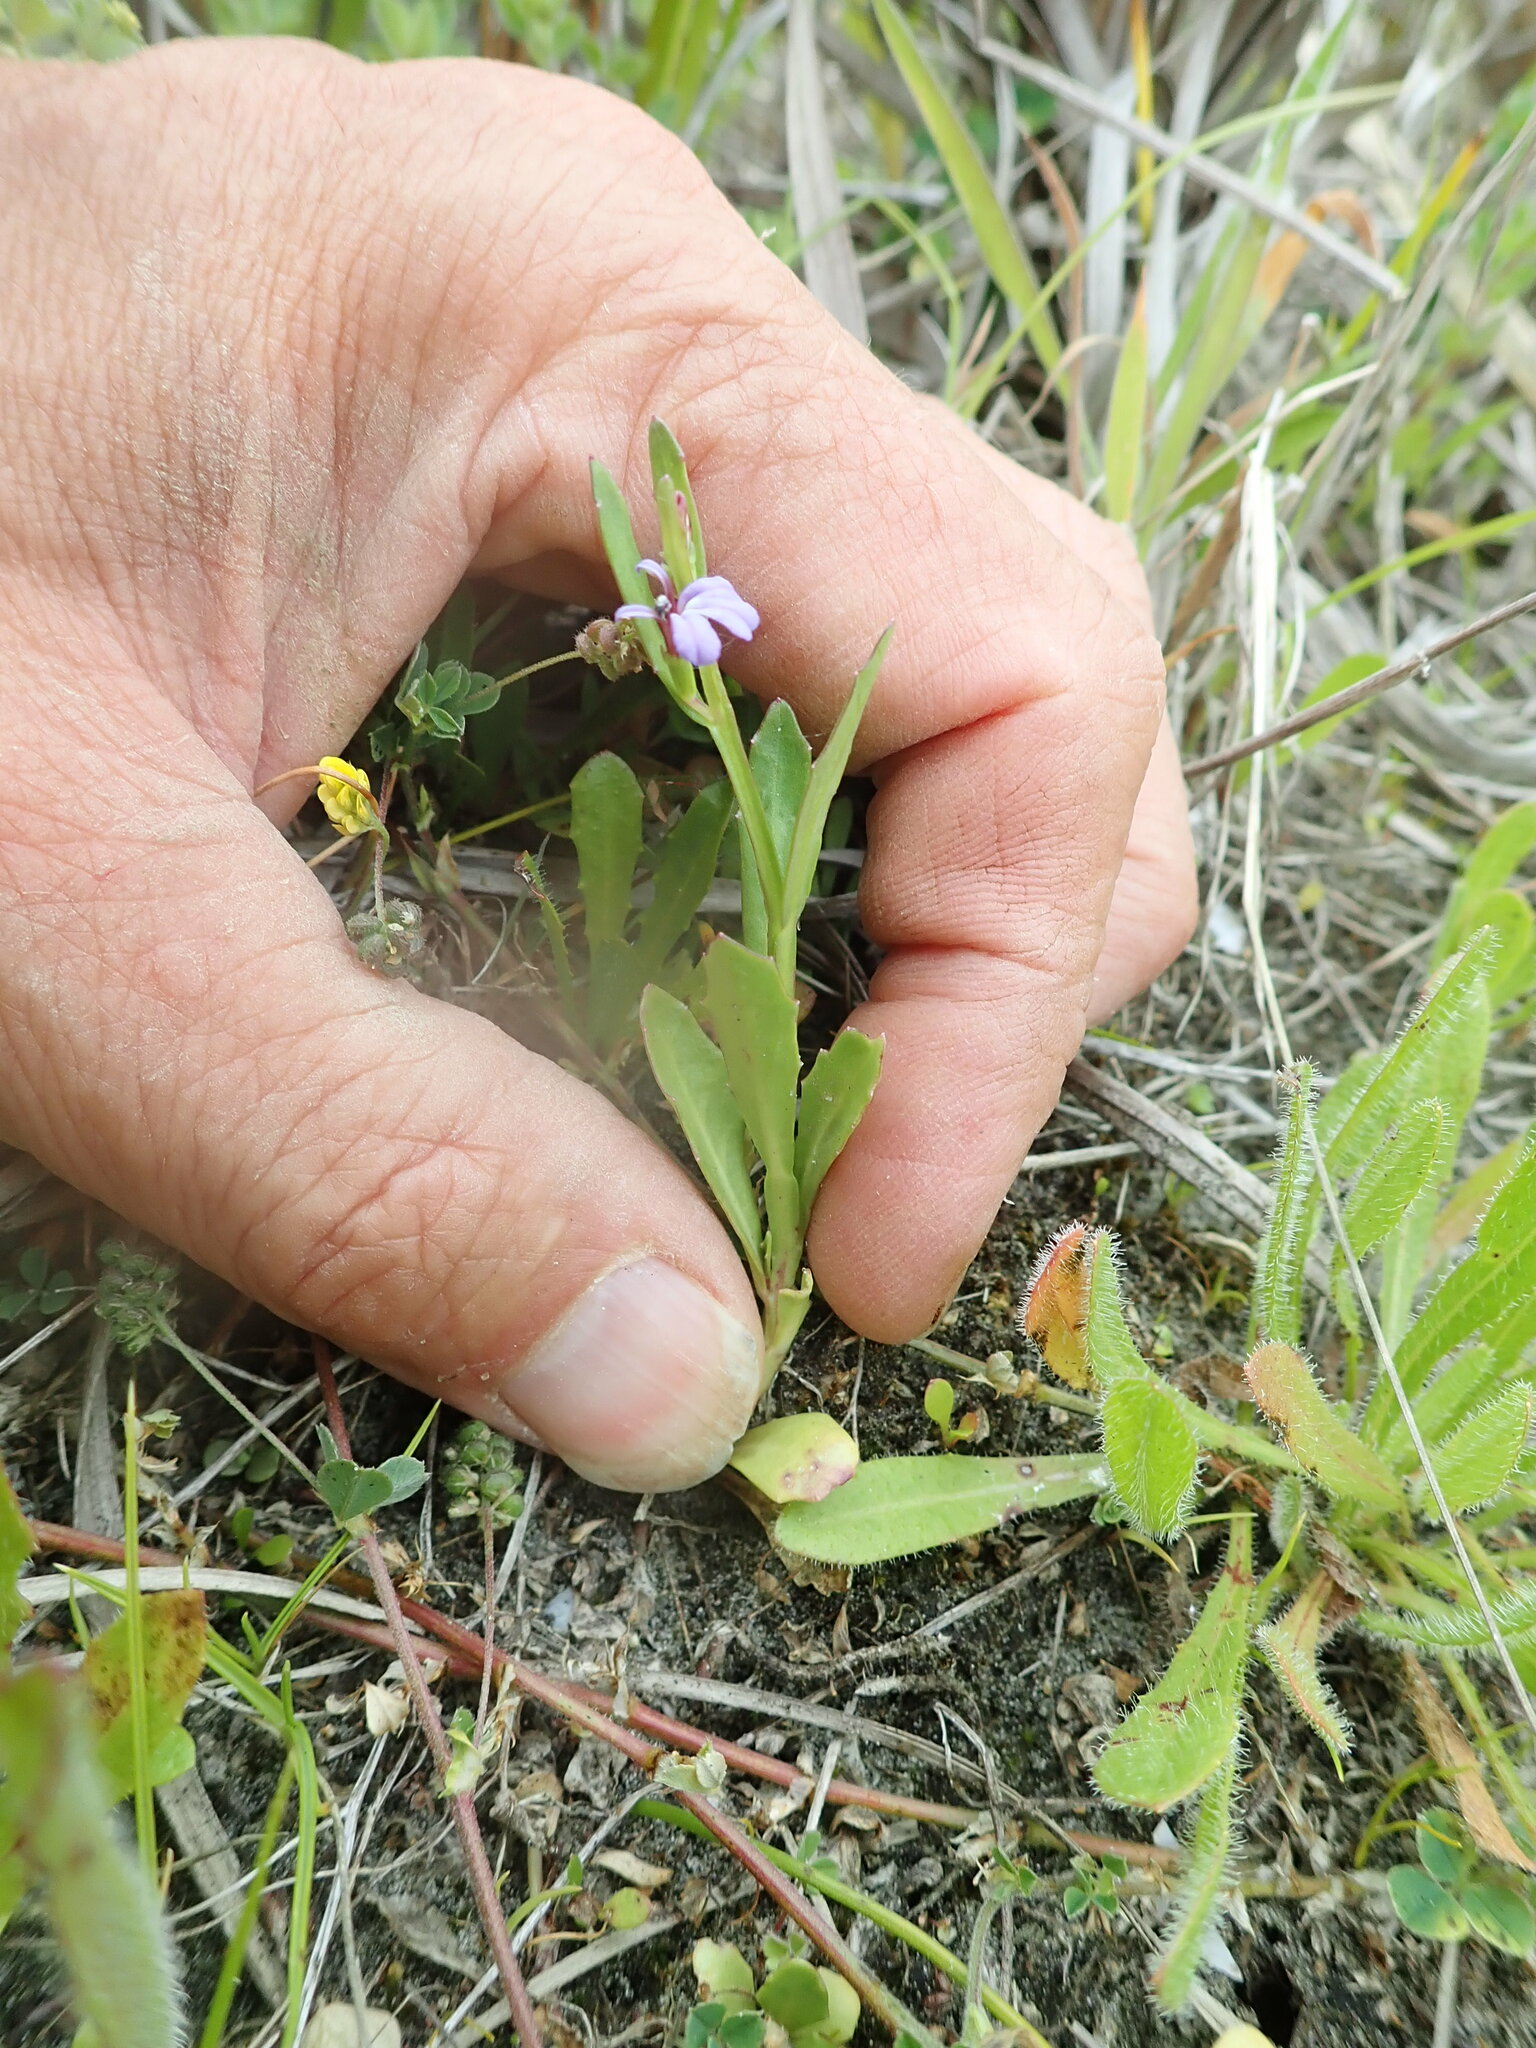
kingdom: Plantae
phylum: Tracheophyta
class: Magnoliopsida
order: Asterales
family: Campanulaceae
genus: Lobelia
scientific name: Lobelia anceps
